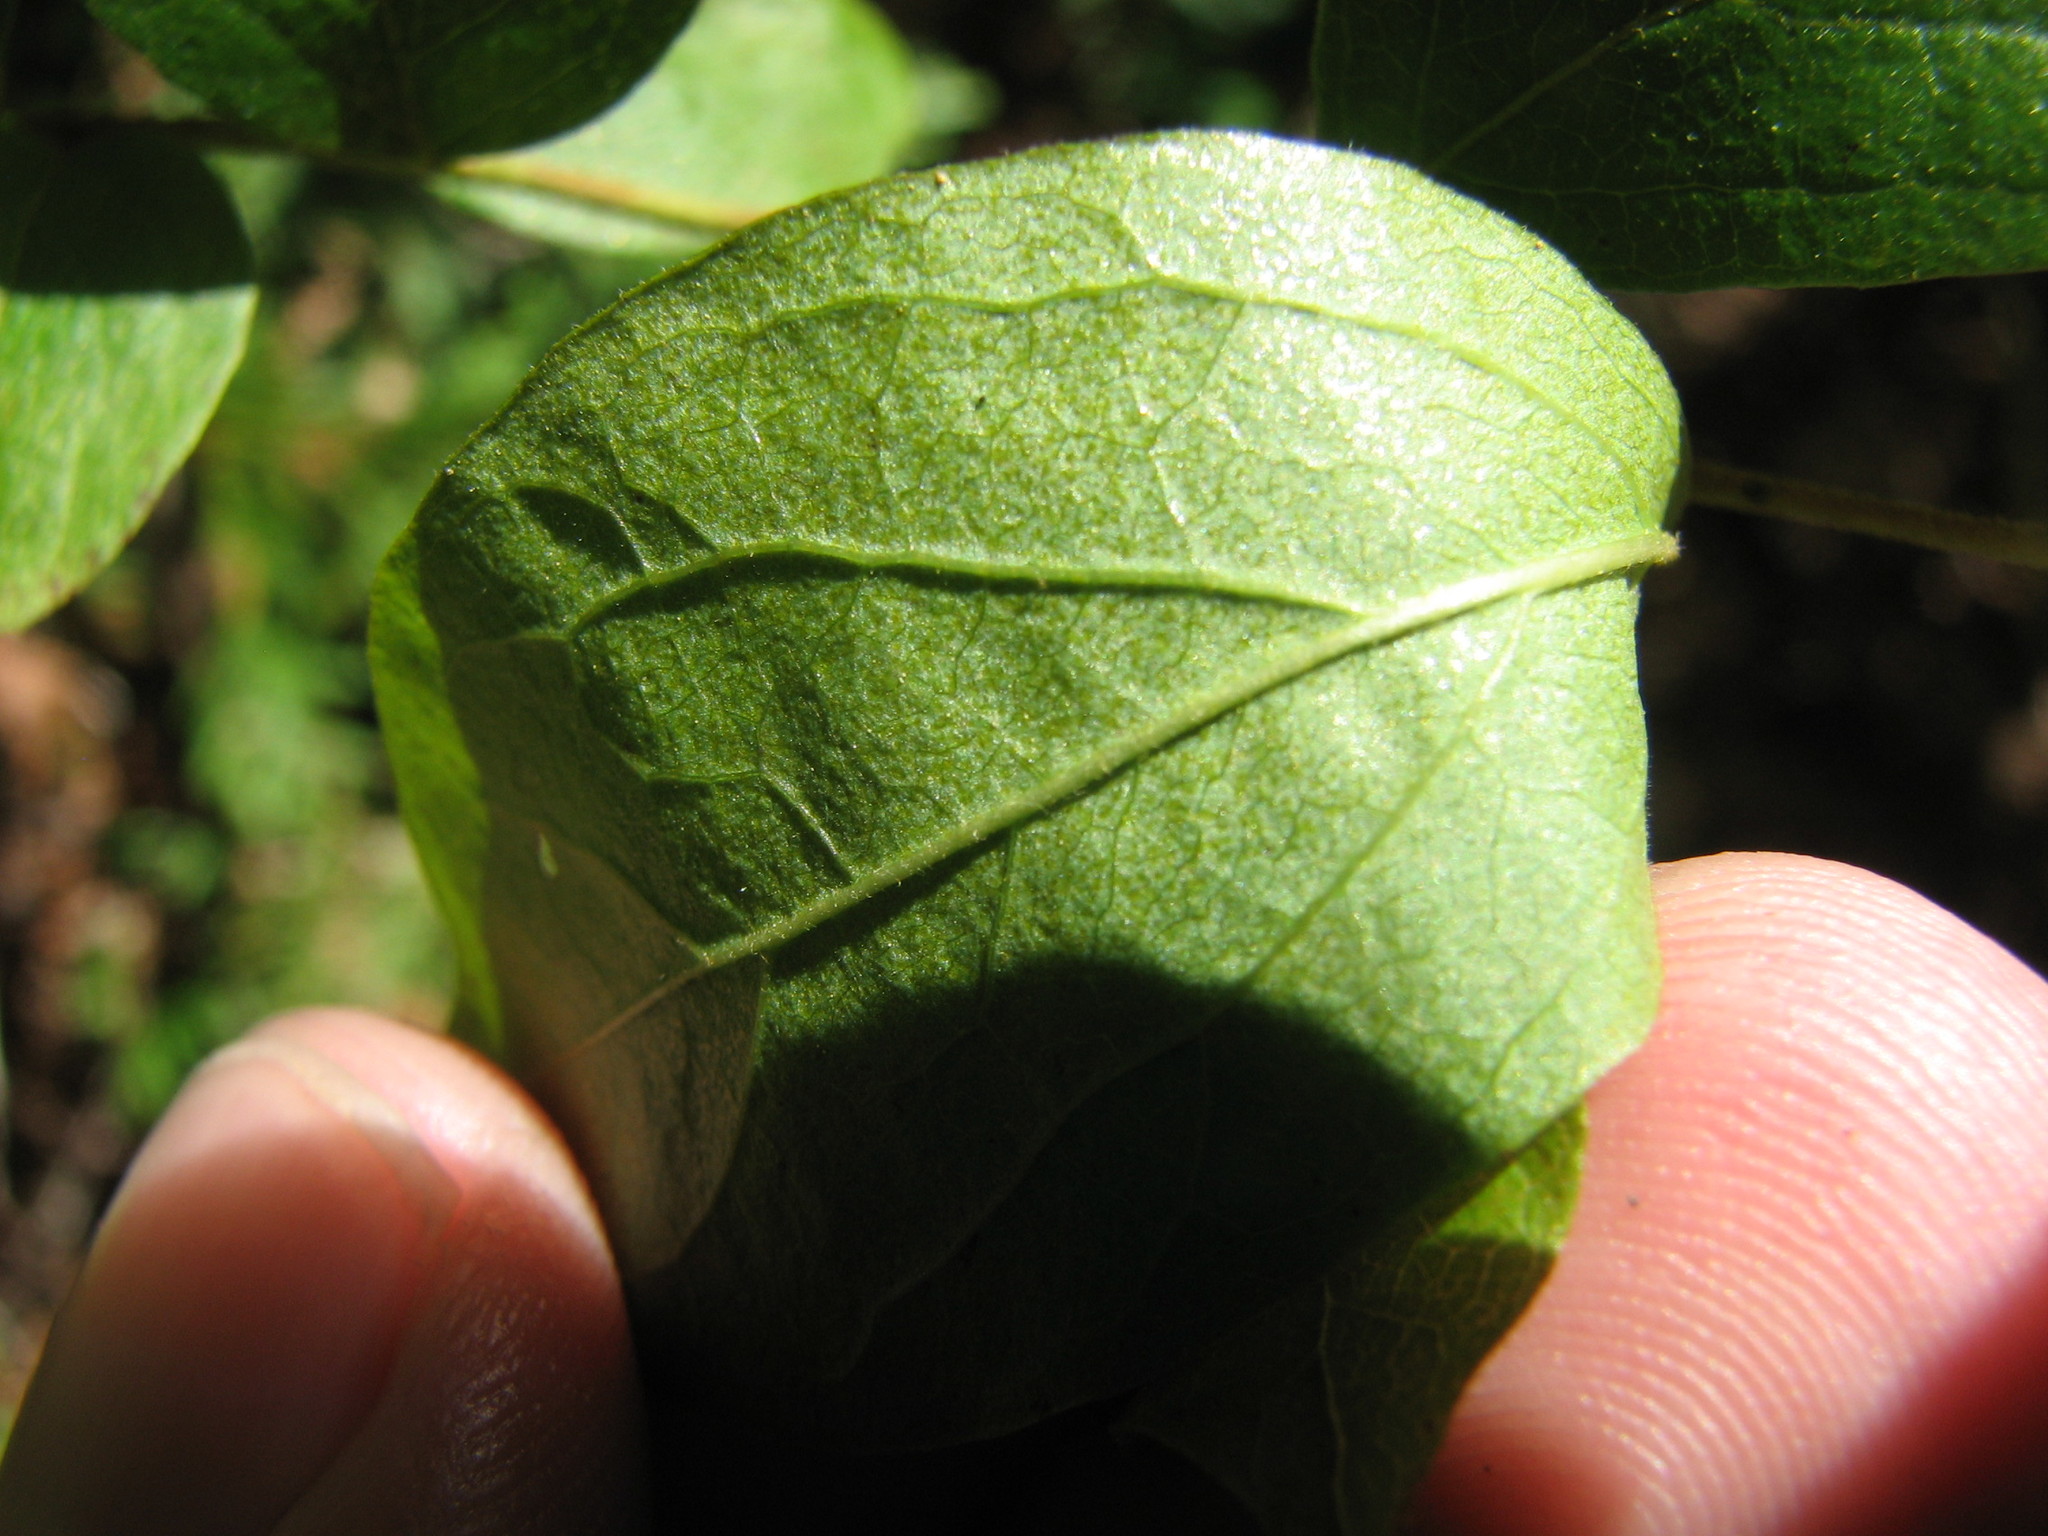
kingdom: Plantae
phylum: Tracheophyta
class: Magnoliopsida
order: Ericales
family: Ericaceae
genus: Gaylussacia
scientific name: Gaylussacia baccata
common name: Black huckleberry
